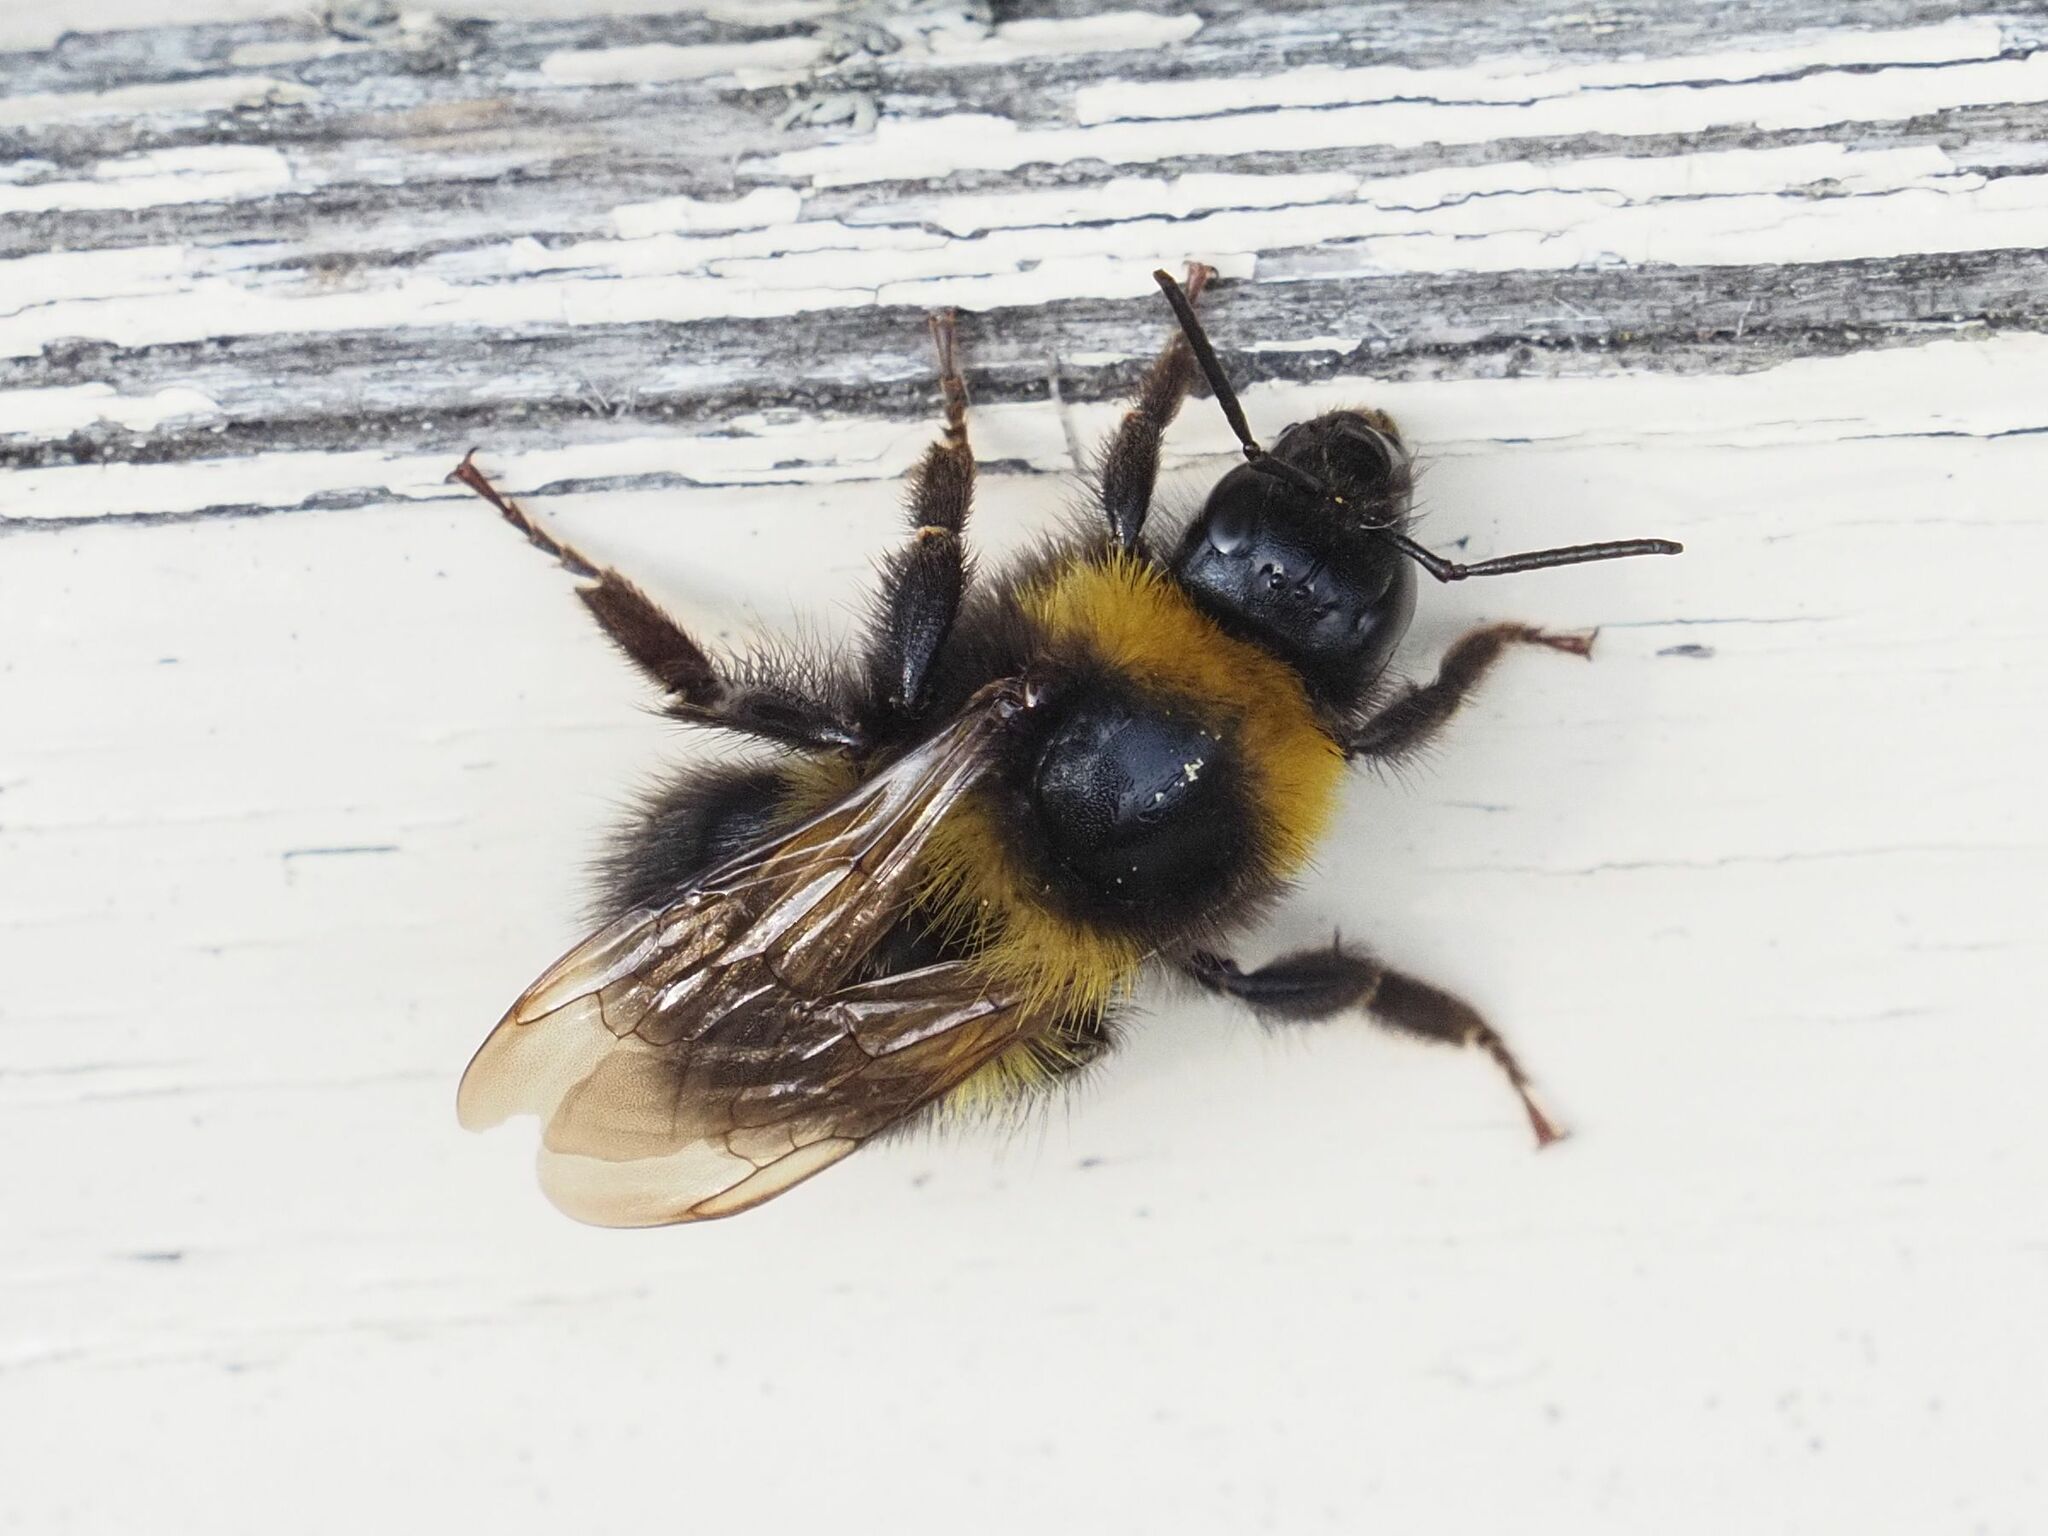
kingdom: Animalia
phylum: Arthropoda
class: Insecta
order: Hymenoptera
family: Apidae
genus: Bombus
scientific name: Bombus hortorum
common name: Garden bumblebee
